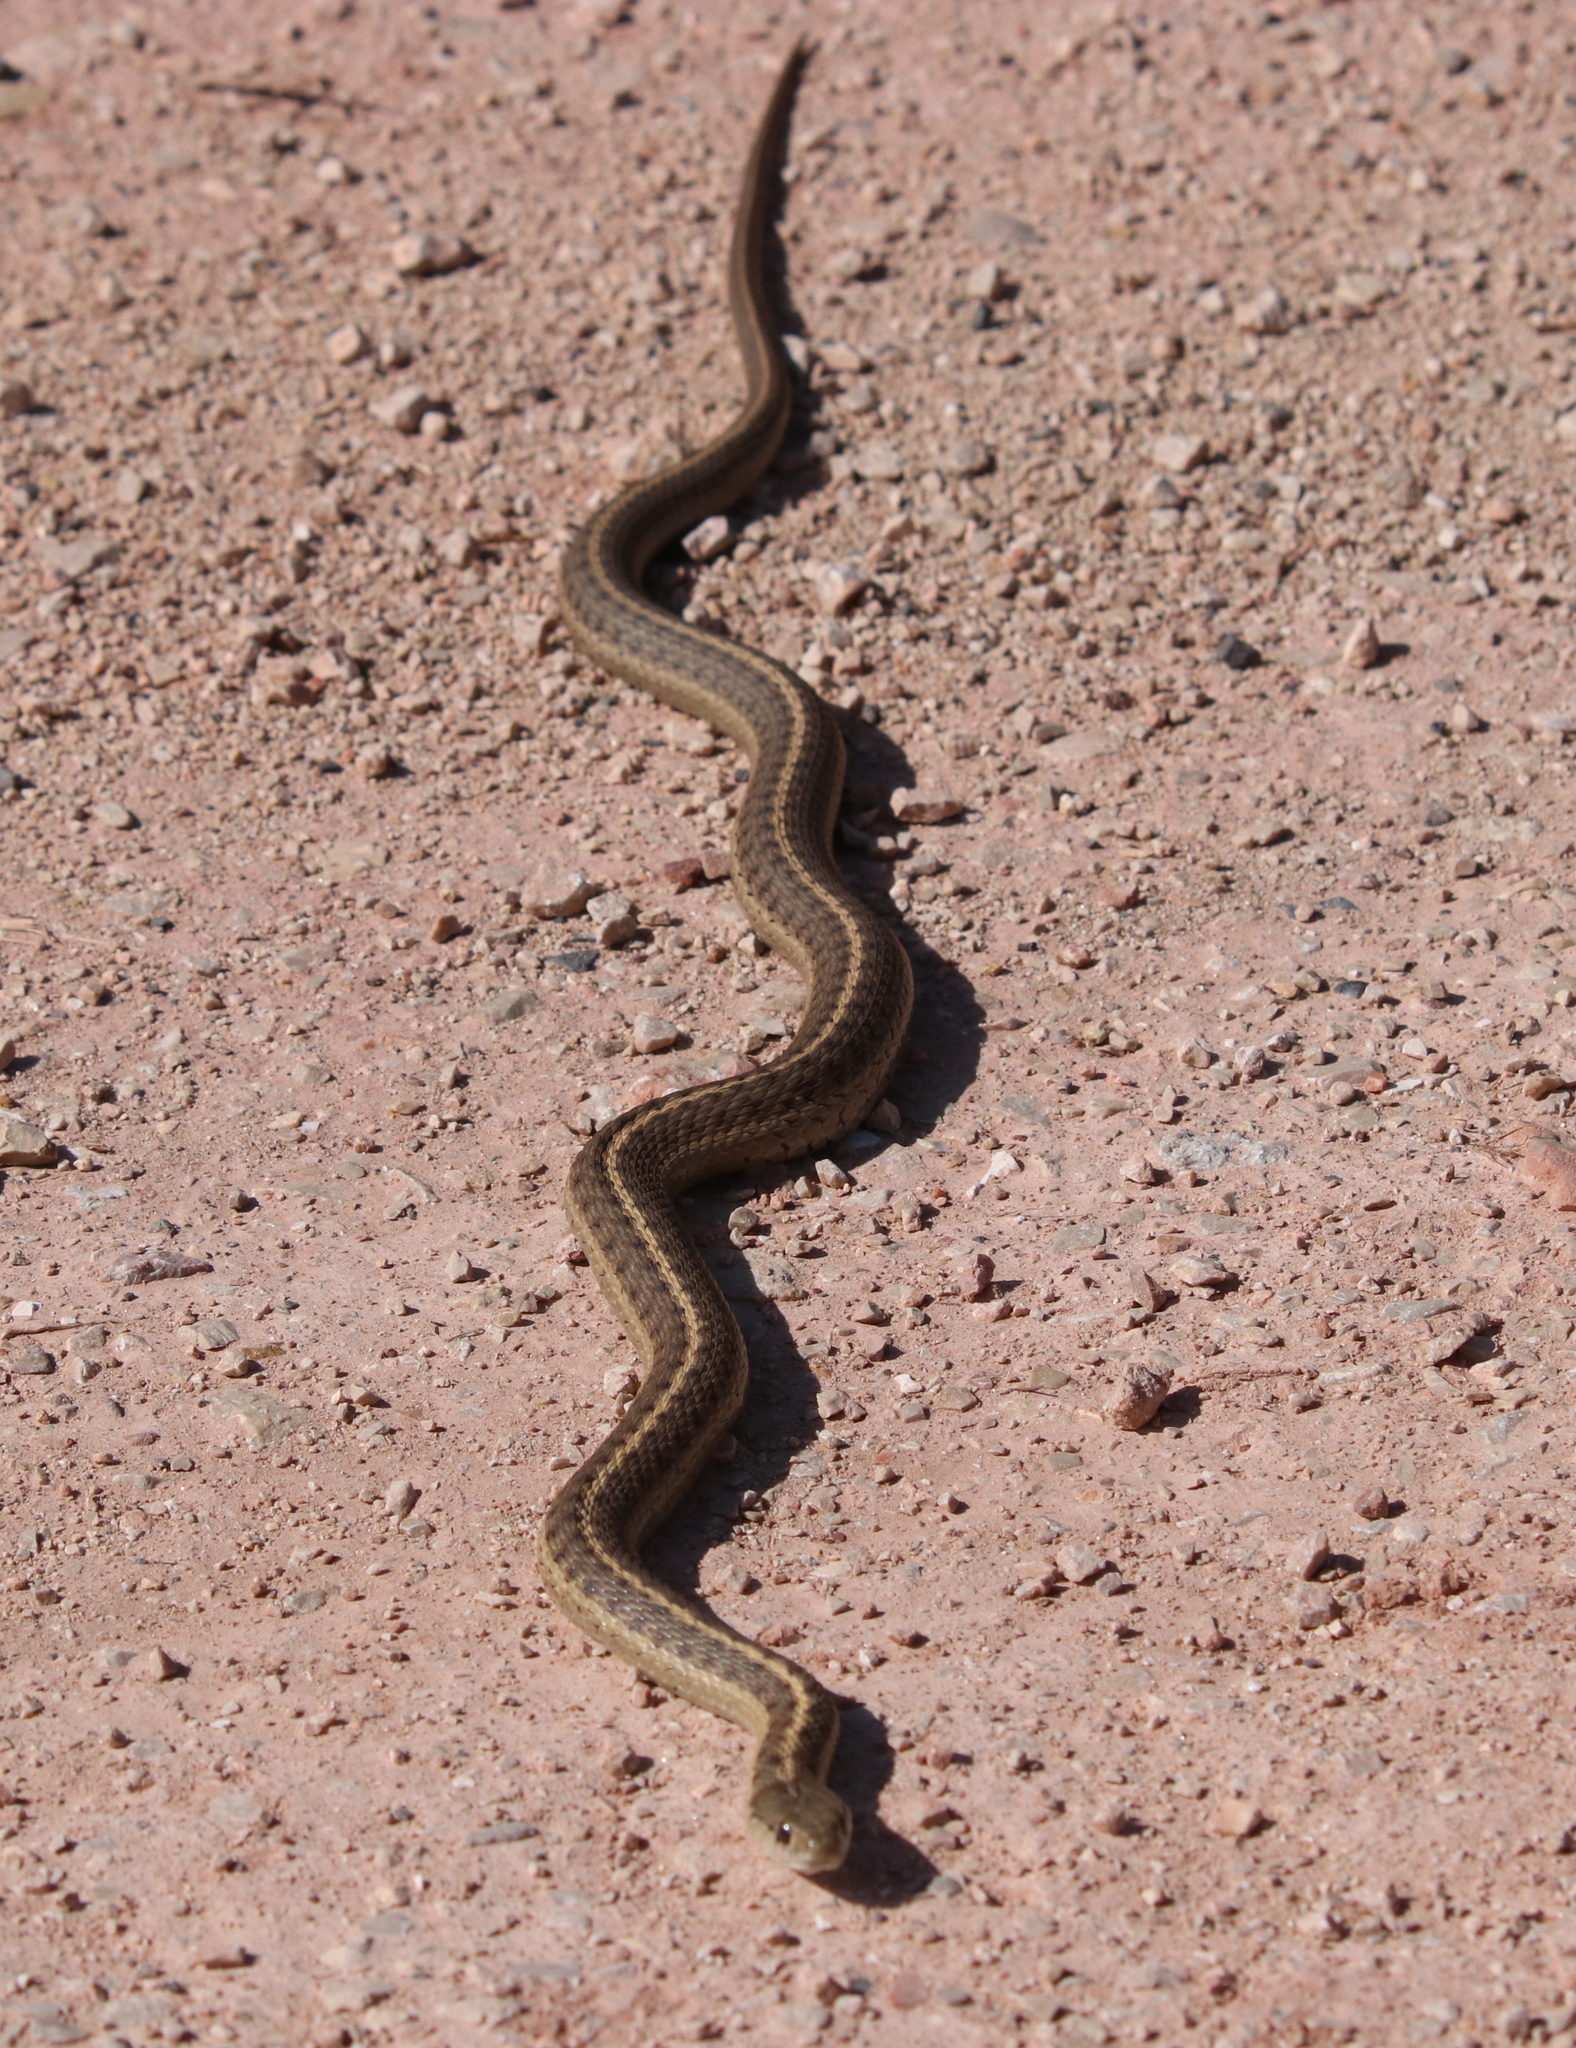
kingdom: Animalia
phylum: Chordata
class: Squamata
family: Colubridae
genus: Thamnophis
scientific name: Thamnophis elegans
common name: Western terrestrial garter snake
